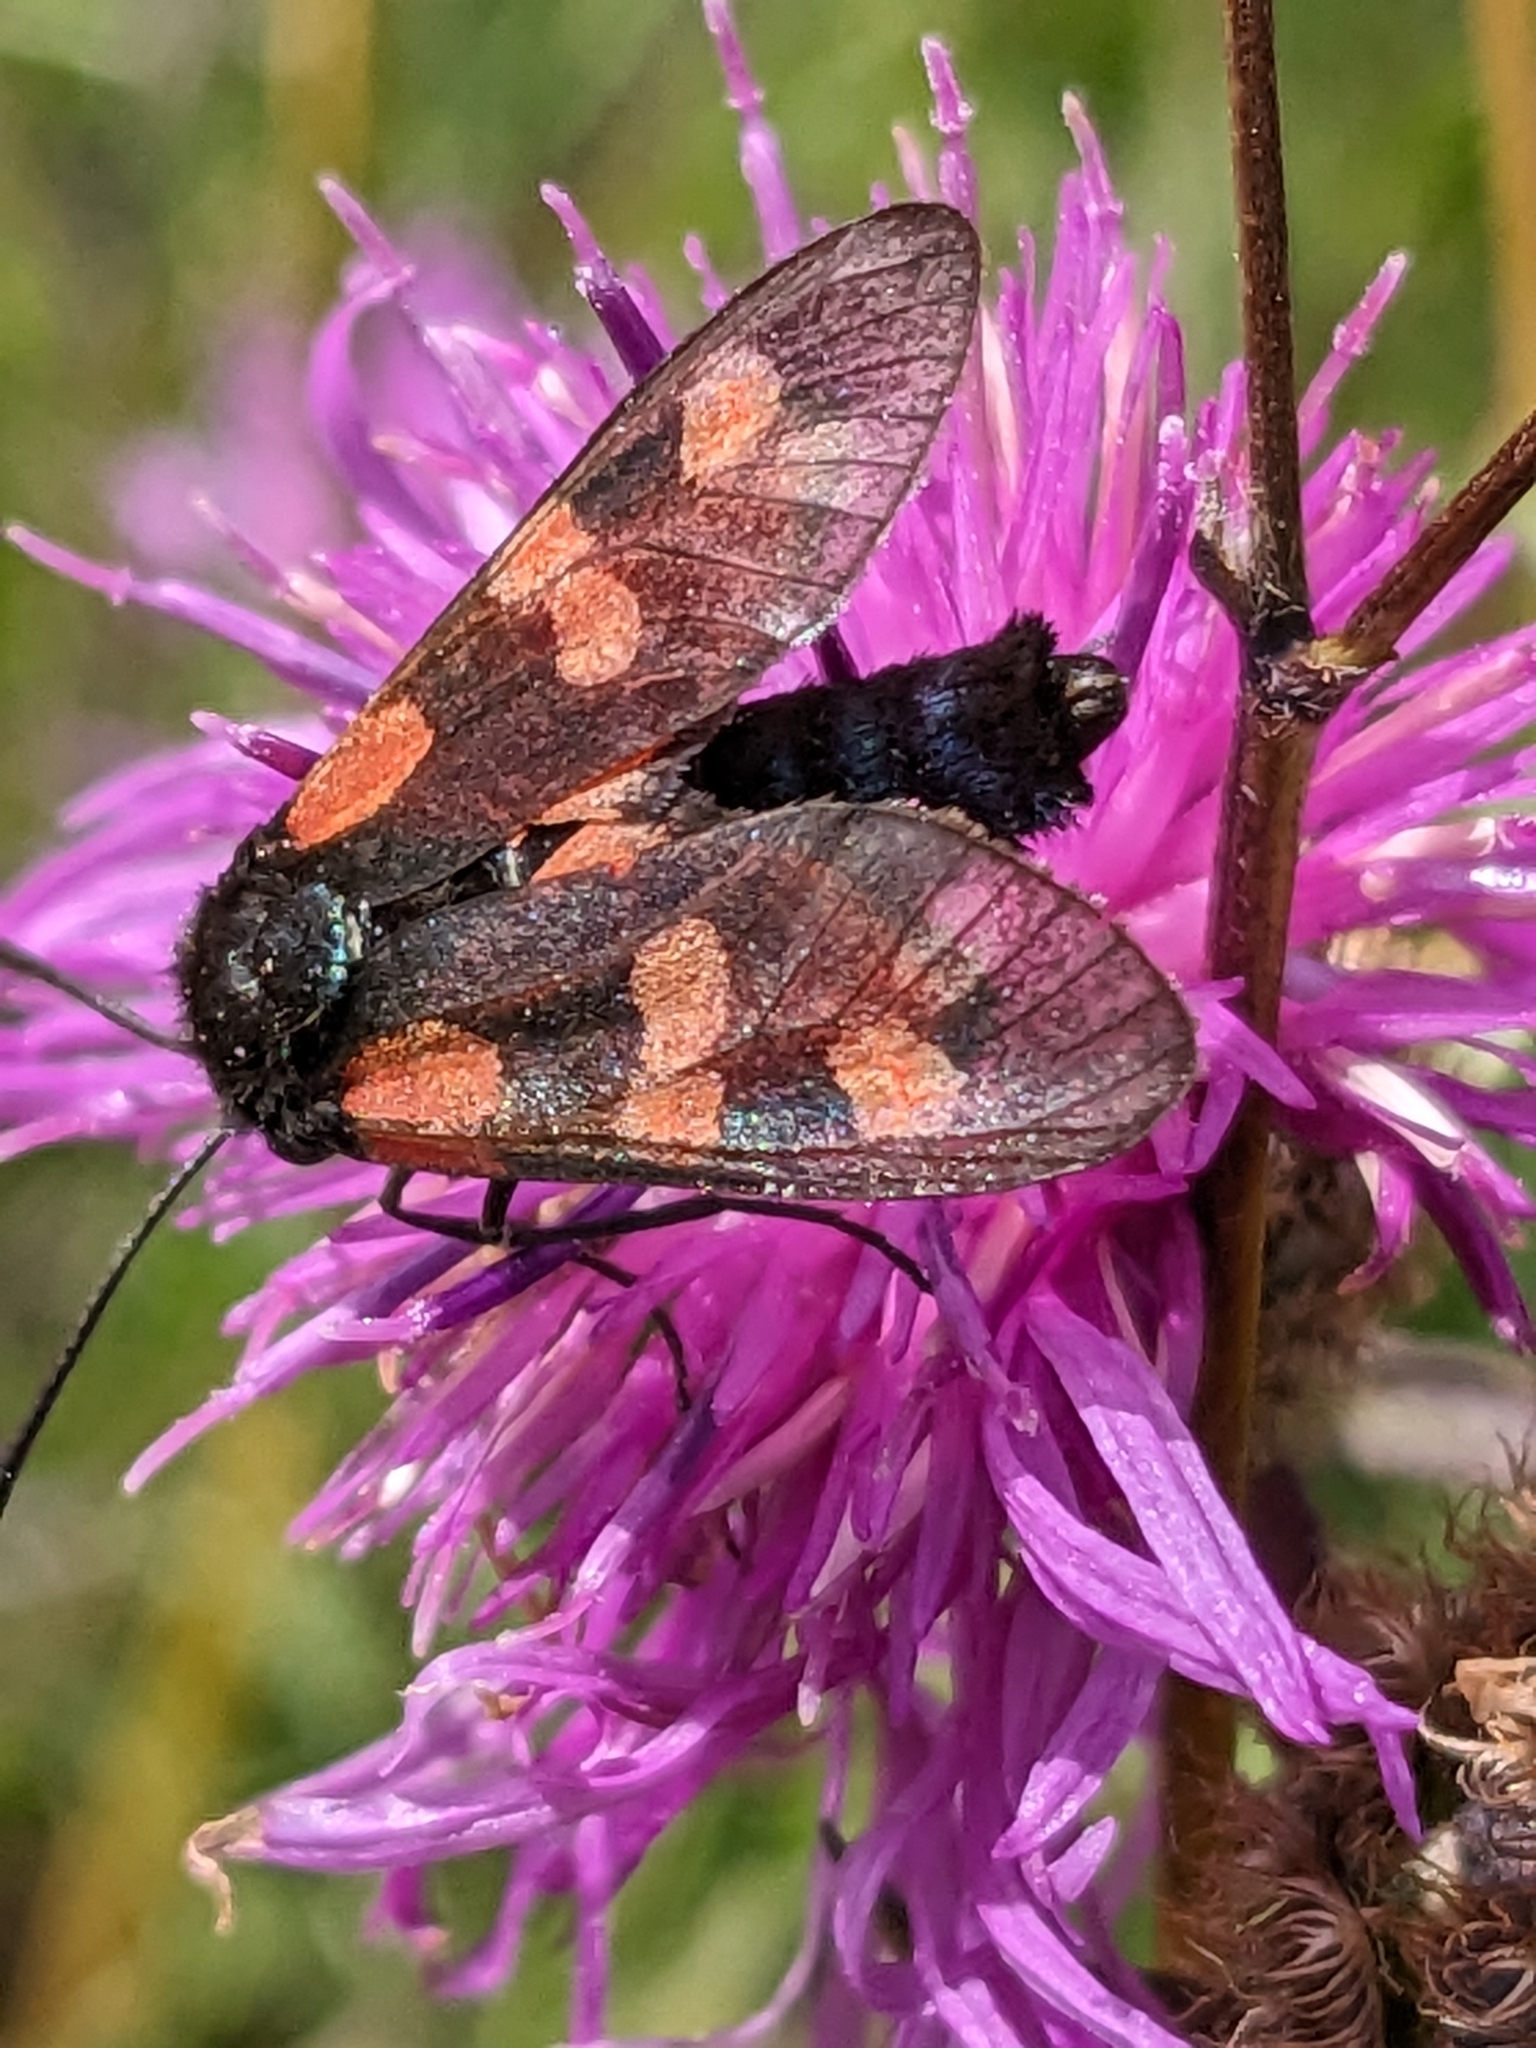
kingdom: Animalia
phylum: Arthropoda
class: Insecta
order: Lepidoptera
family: Zygaenidae
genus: Zygaena
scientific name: Zygaena
